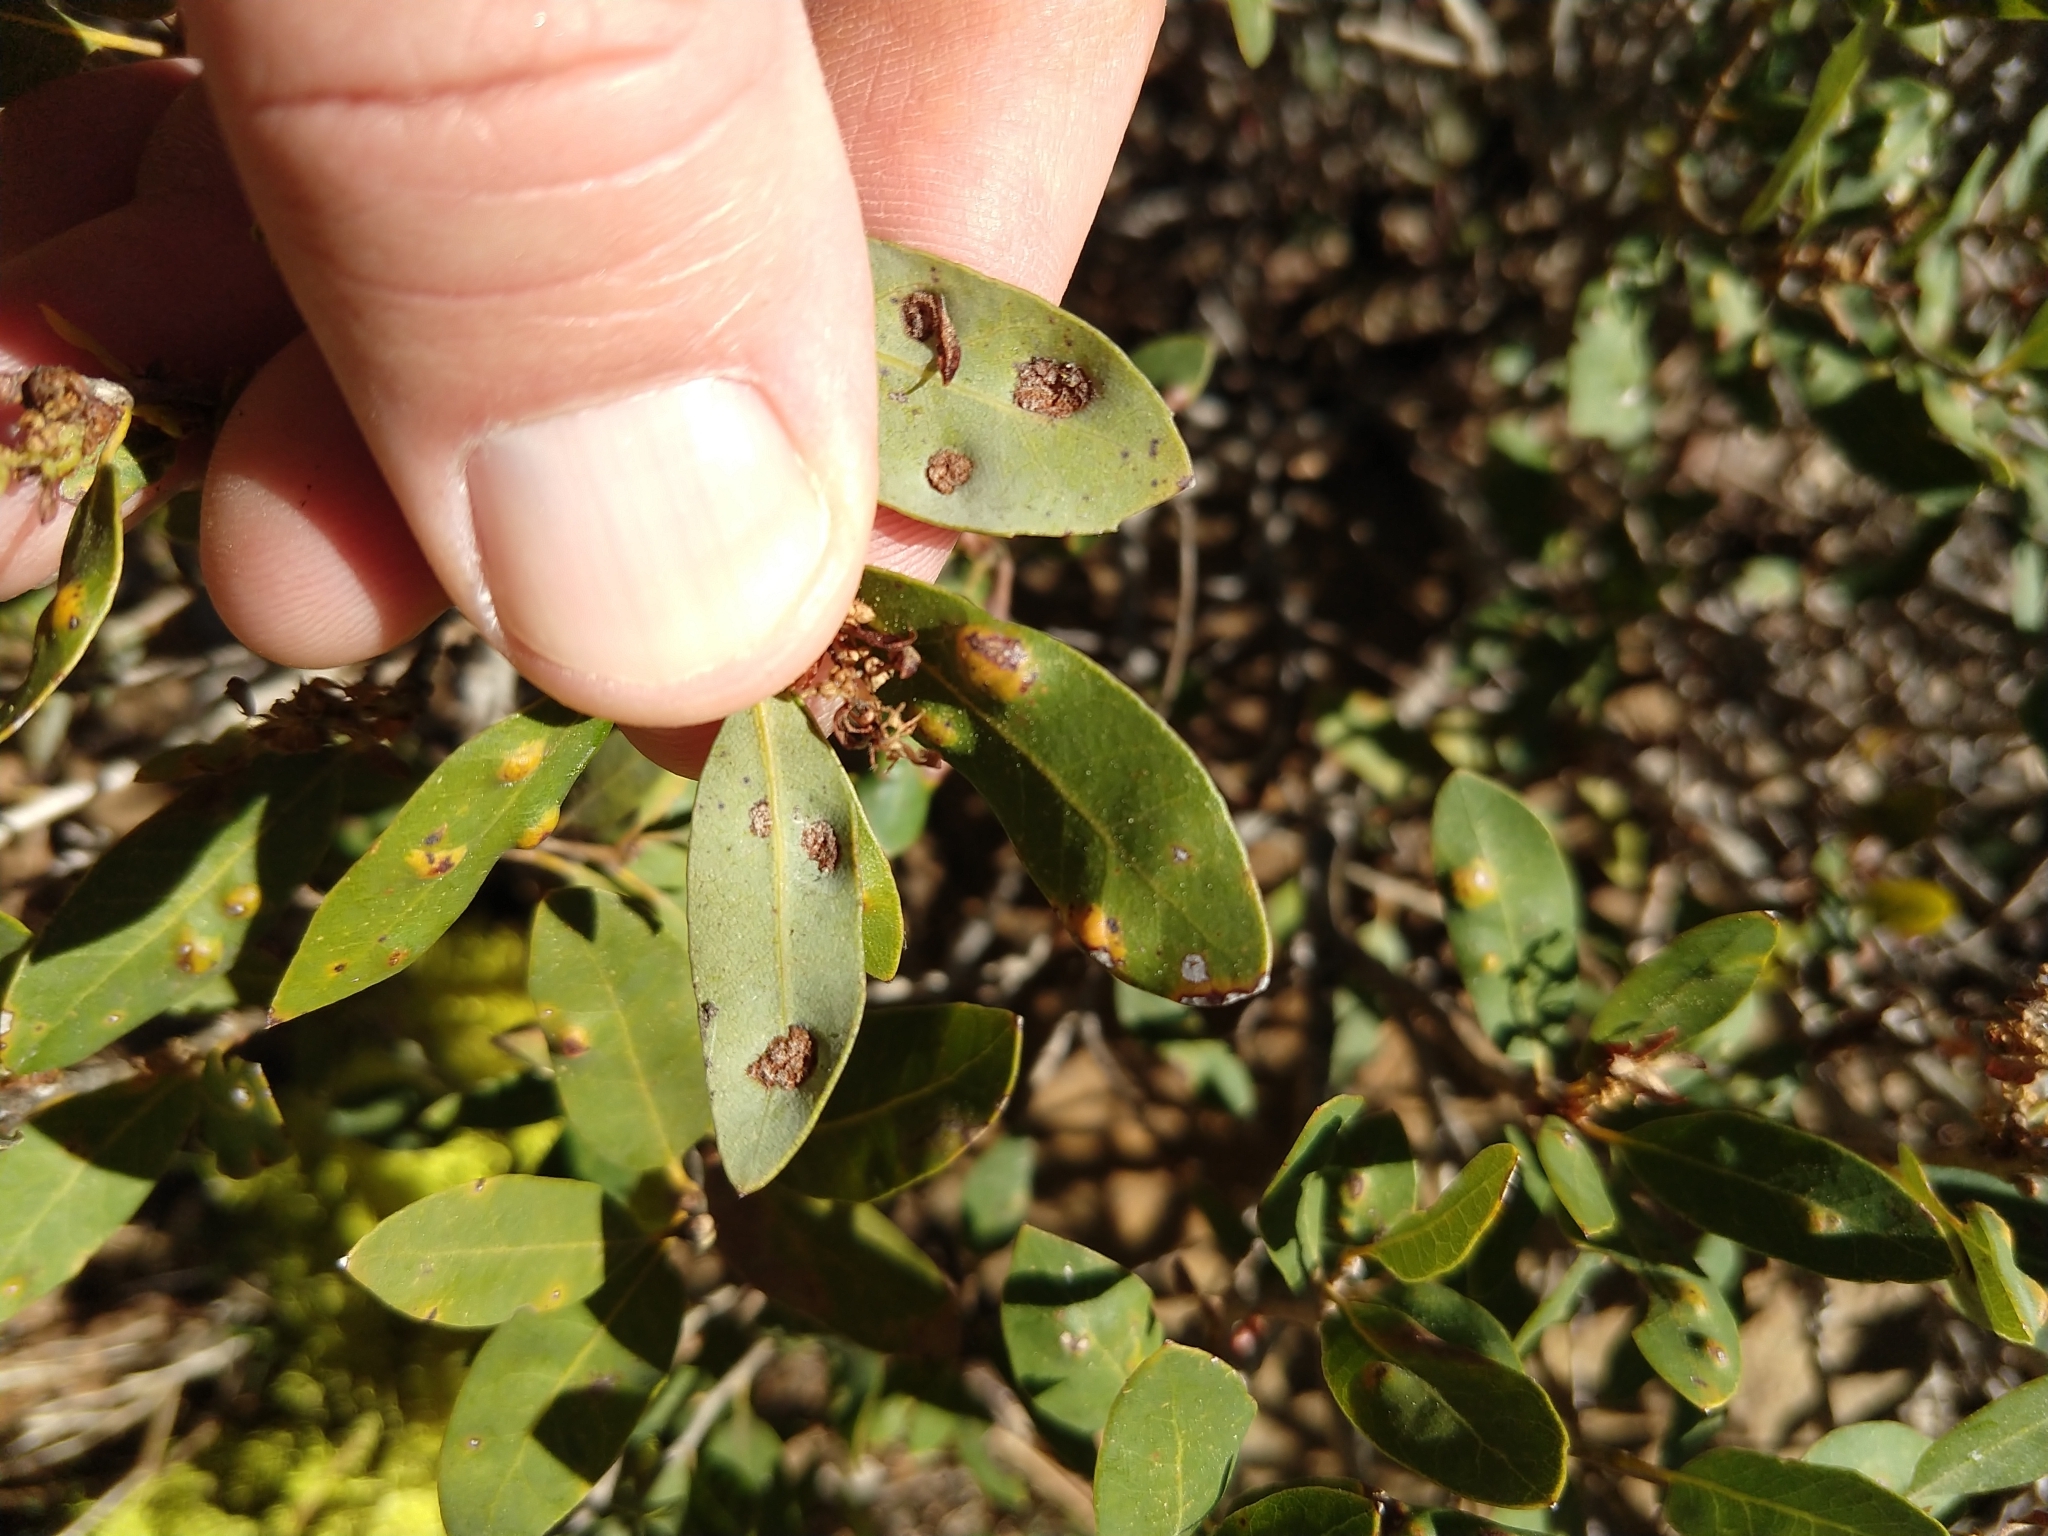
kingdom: Animalia
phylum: Arthropoda
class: Arachnida
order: Trombidiformes
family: Eriophyidae
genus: Aceria
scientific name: Aceria
